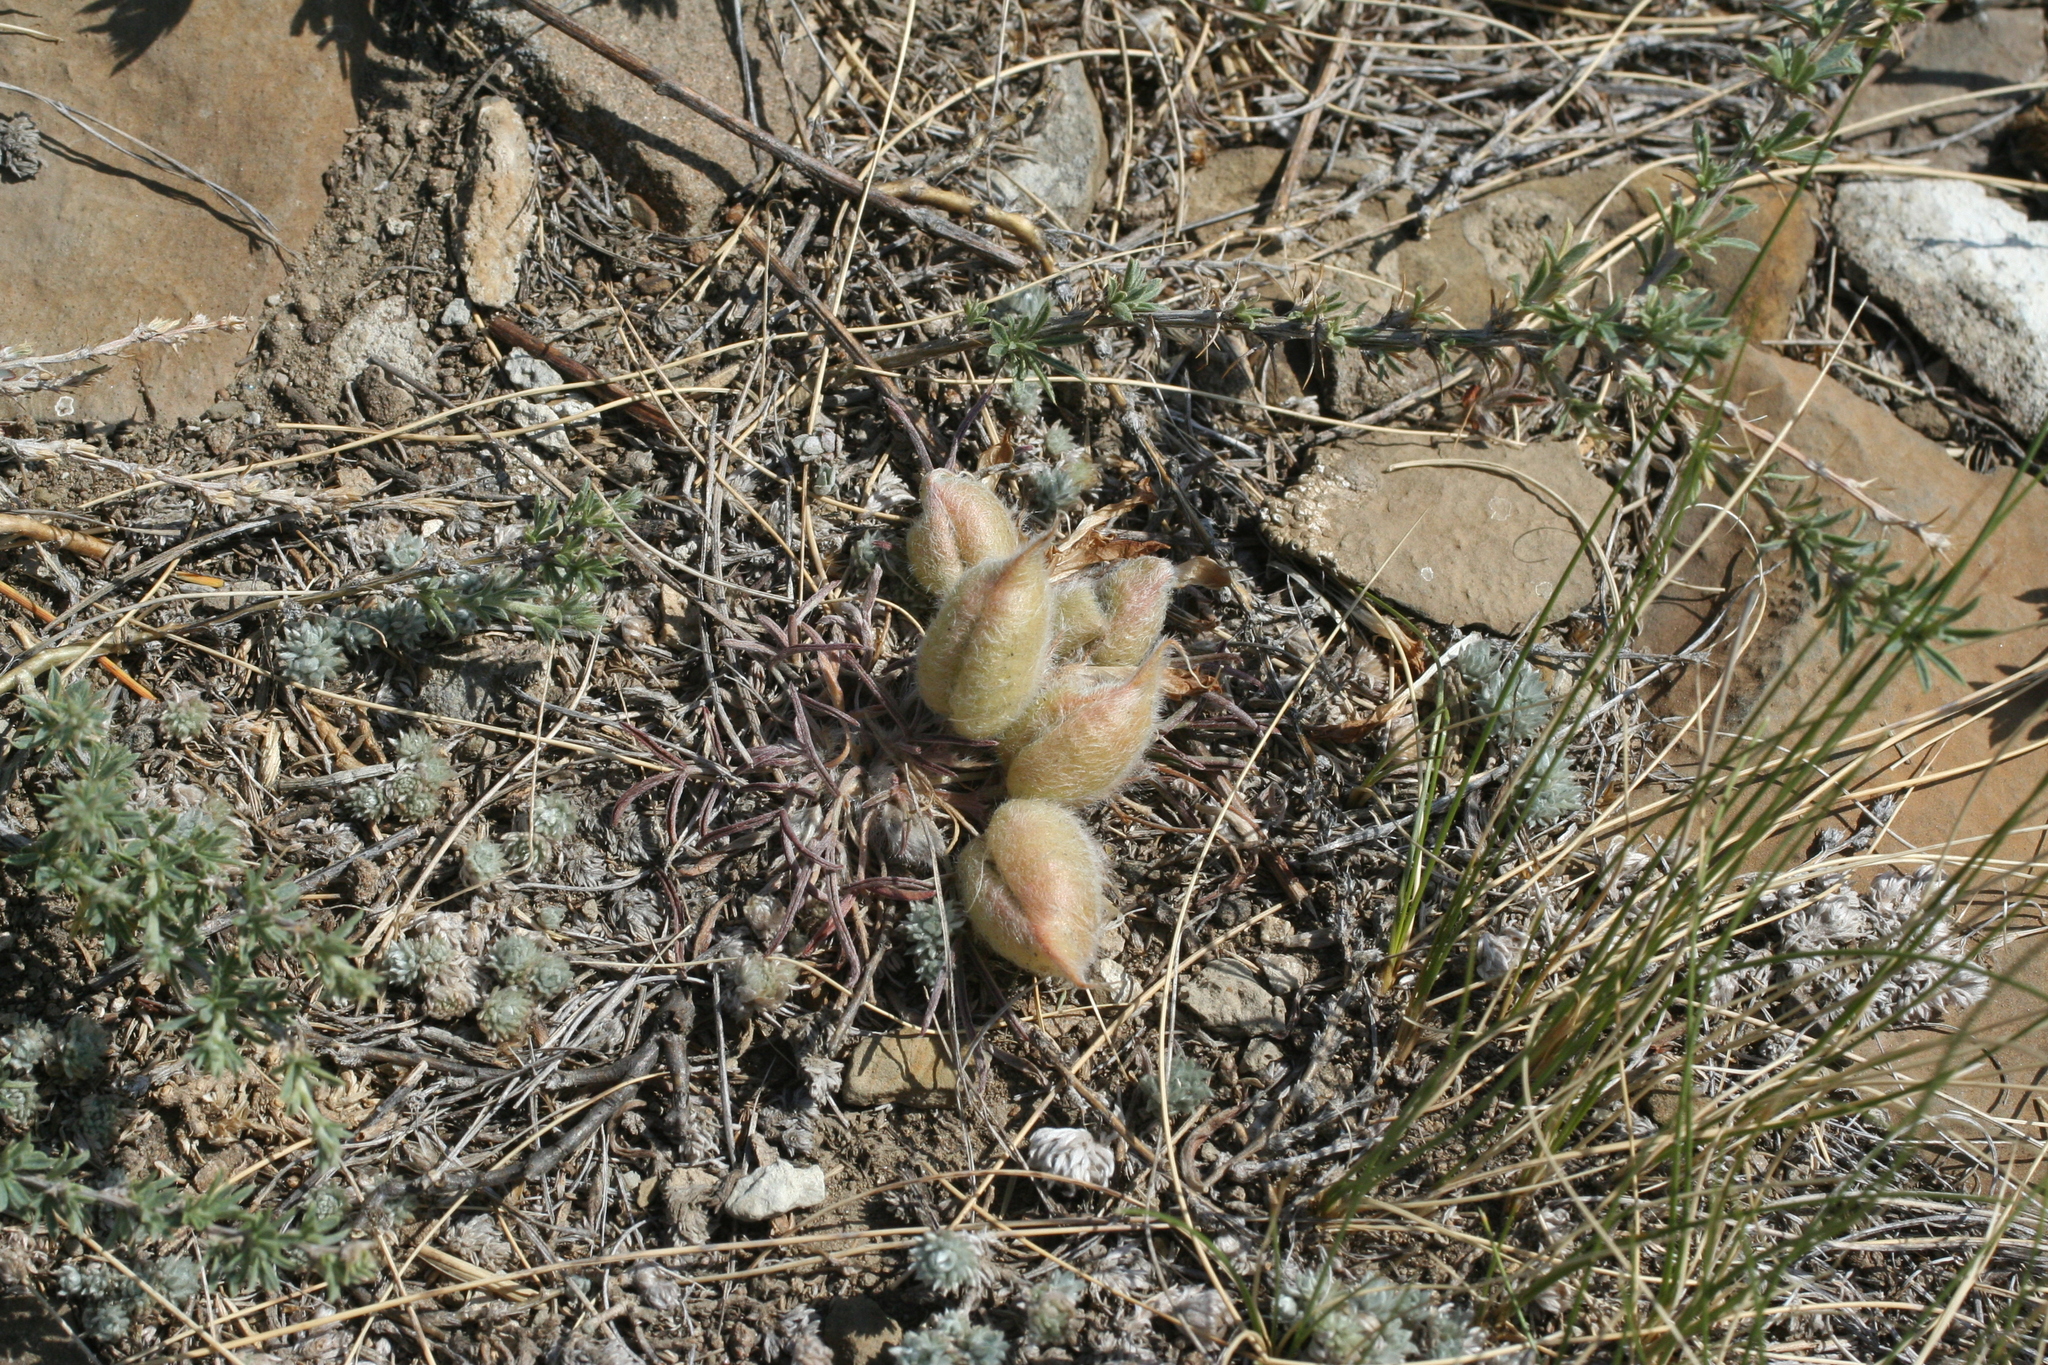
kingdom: Plantae
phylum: Tracheophyta
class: Magnoliopsida
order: Fabales
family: Fabaceae
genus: Oxytropis
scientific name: Oxytropis sobolevskajae
